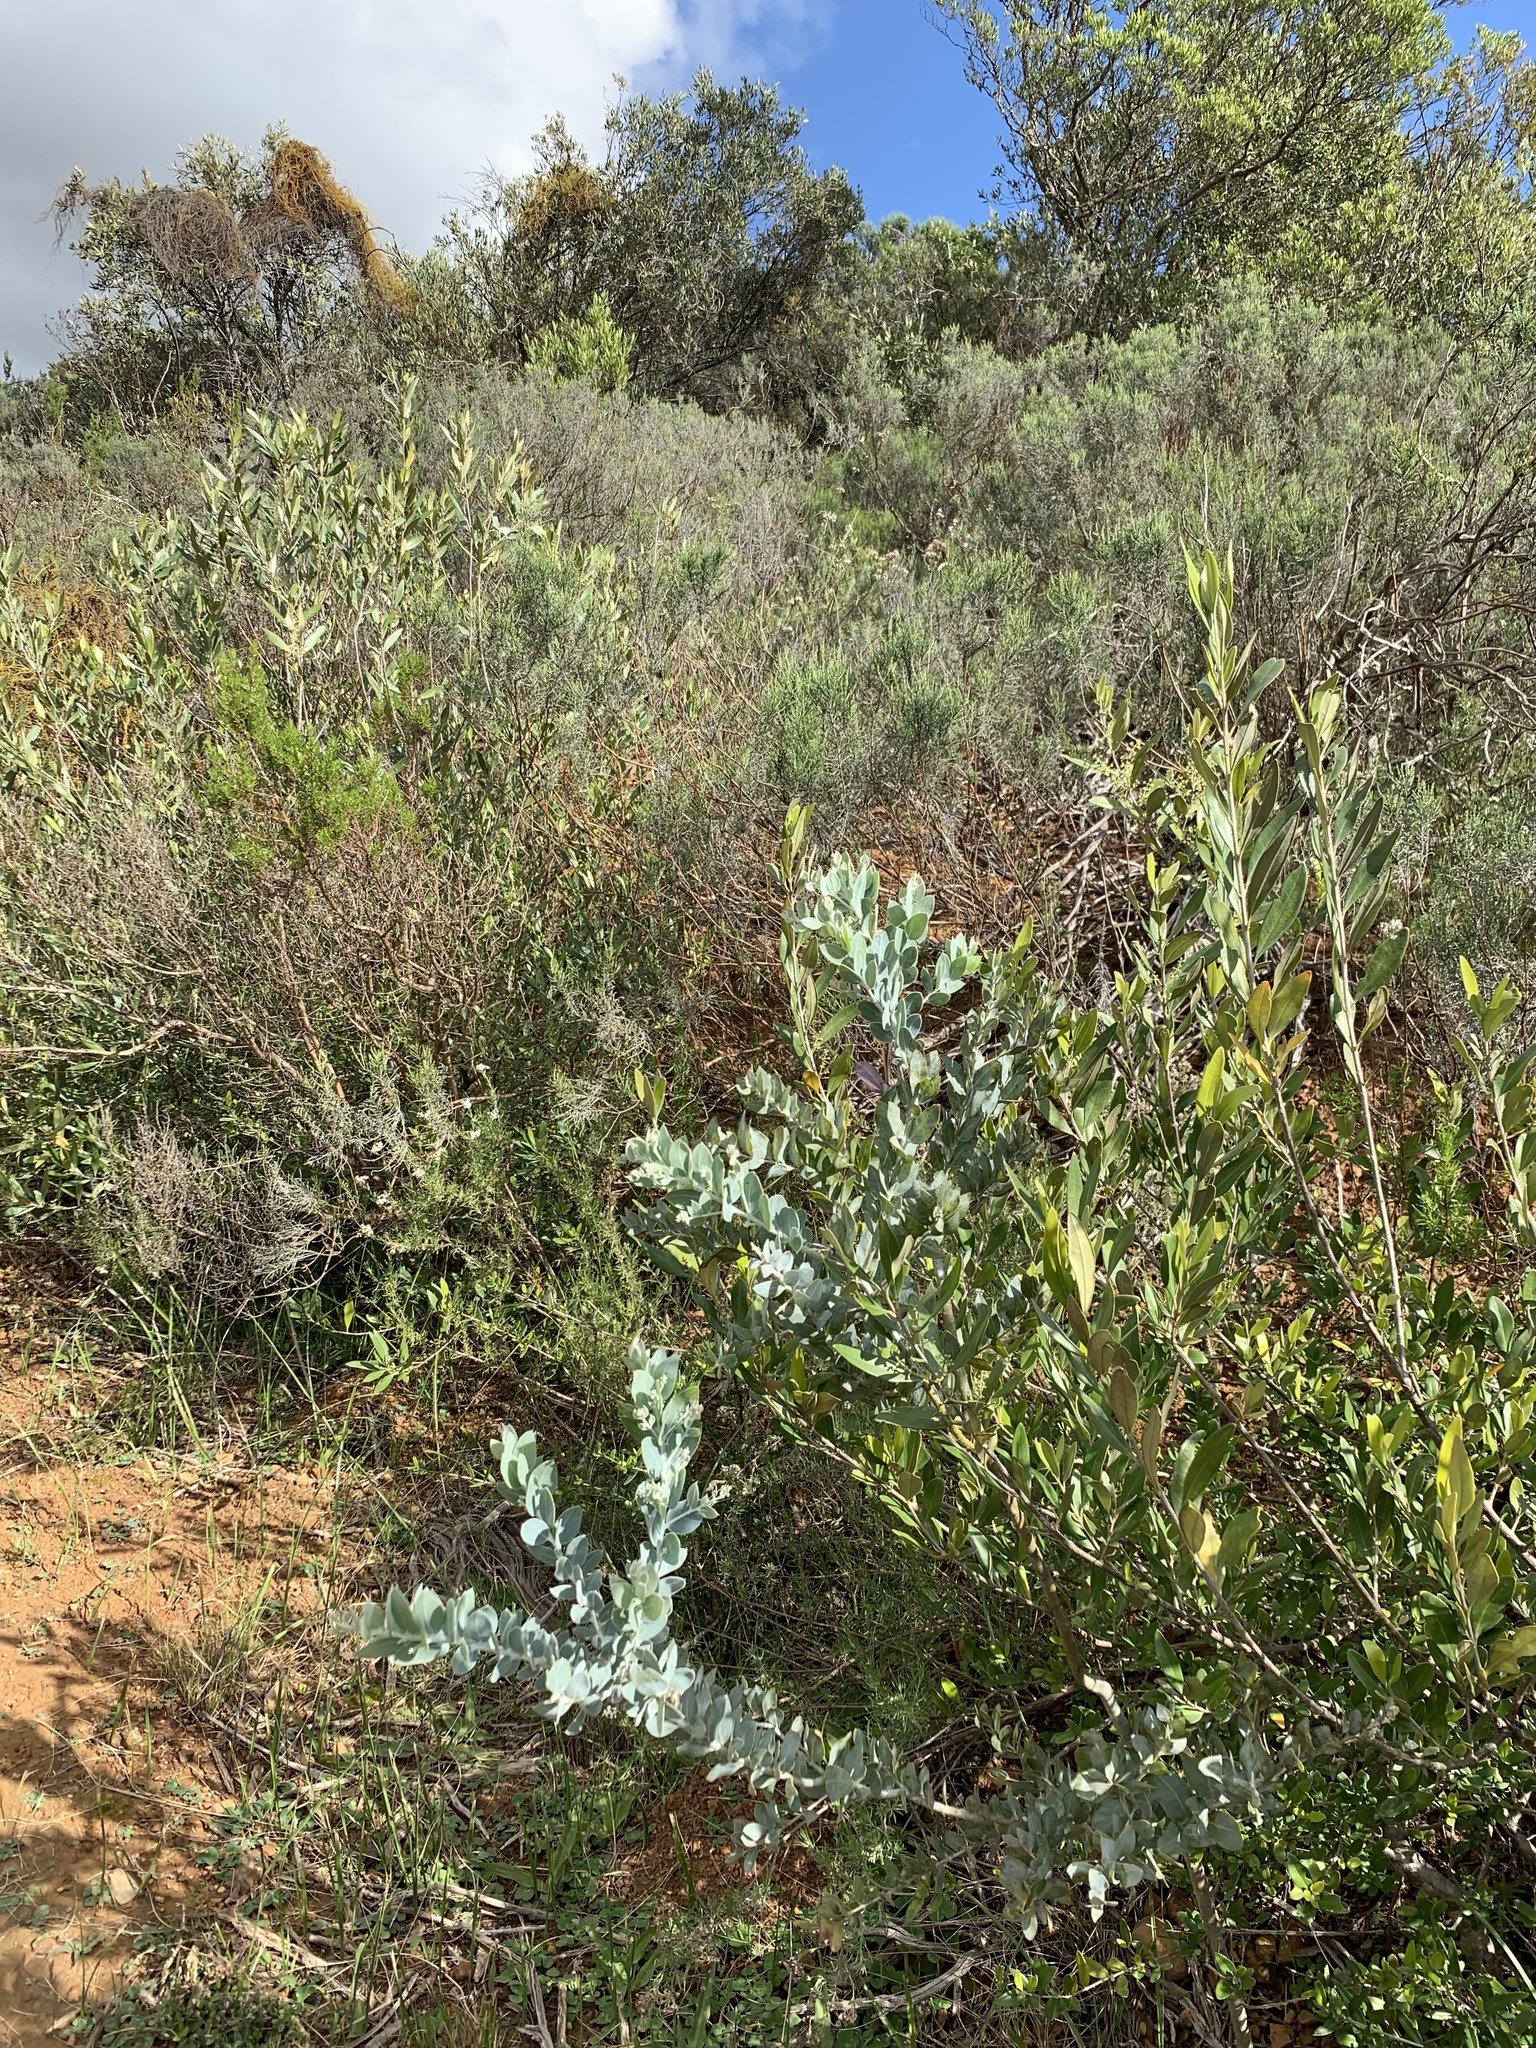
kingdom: Plantae
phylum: Tracheophyta
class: Magnoliopsida
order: Fabales
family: Fabaceae
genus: Acacia
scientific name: Acacia podalyriifolia
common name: Pearl wattle
